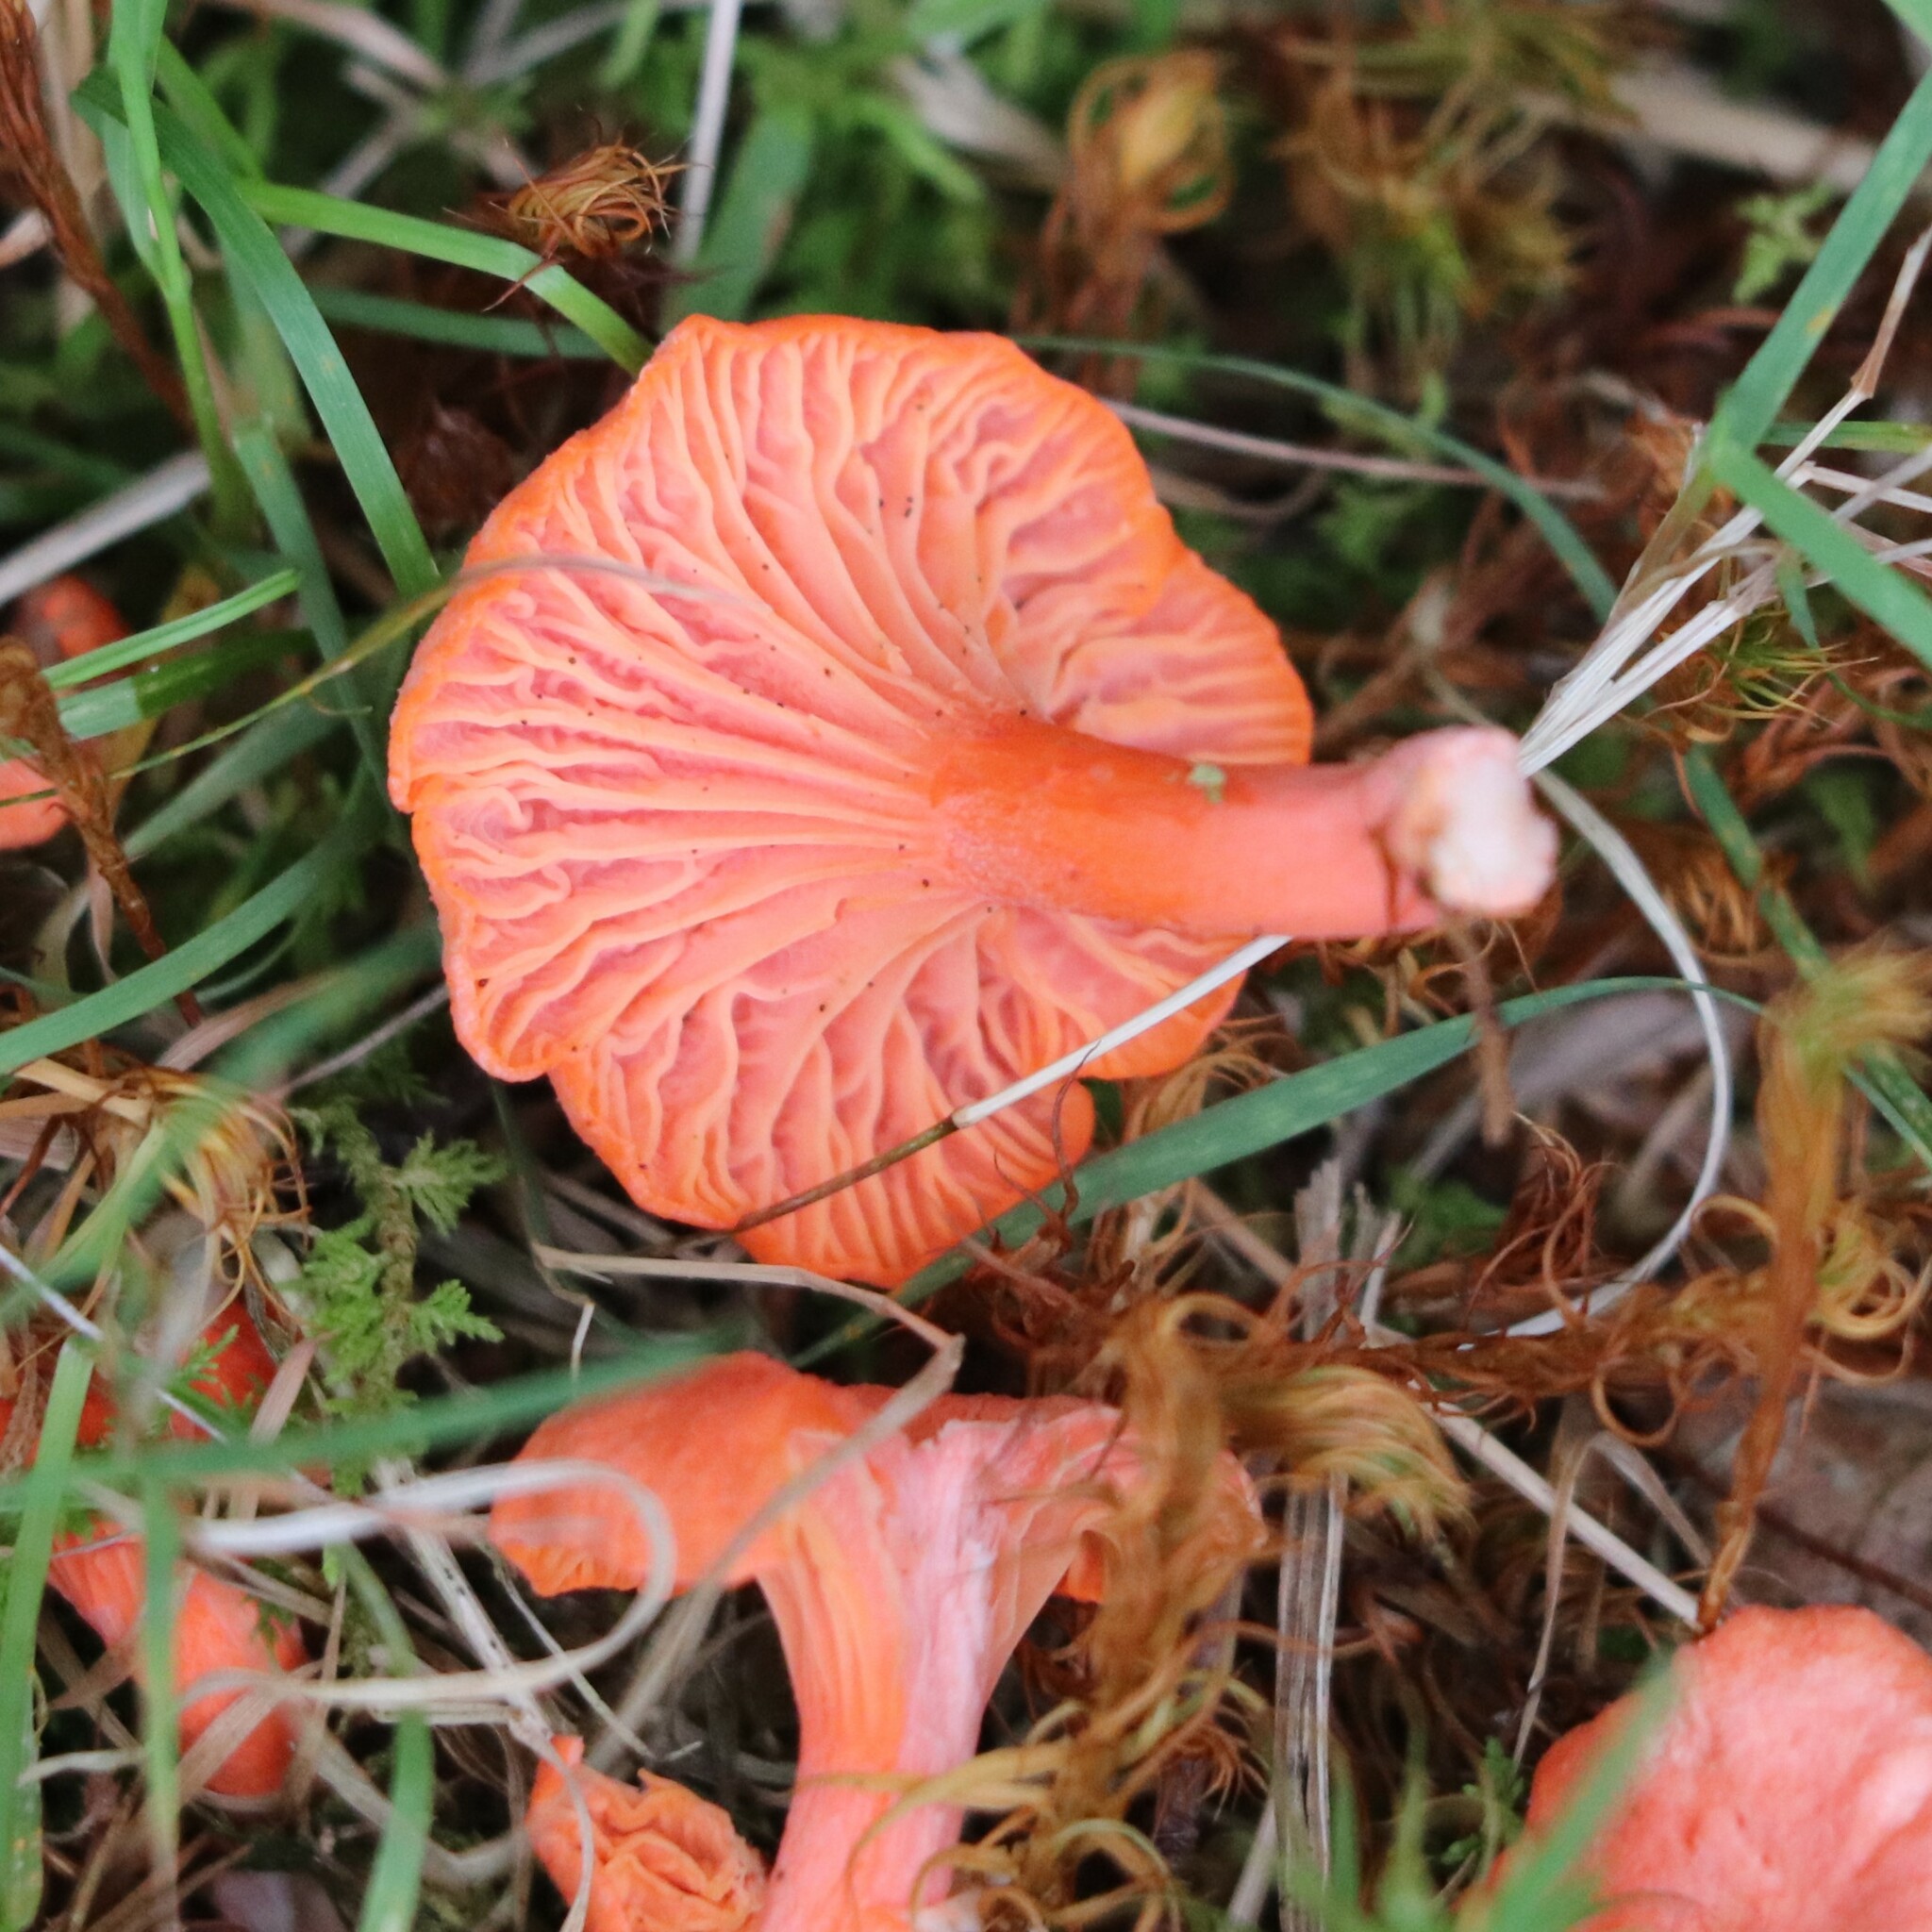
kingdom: Fungi
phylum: Basidiomycota
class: Agaricomycetes
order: Cantharellales
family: Hydnaceae
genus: Cantharellus
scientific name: Cantharellus cinnabarinus
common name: Cinnabar chanterelle
